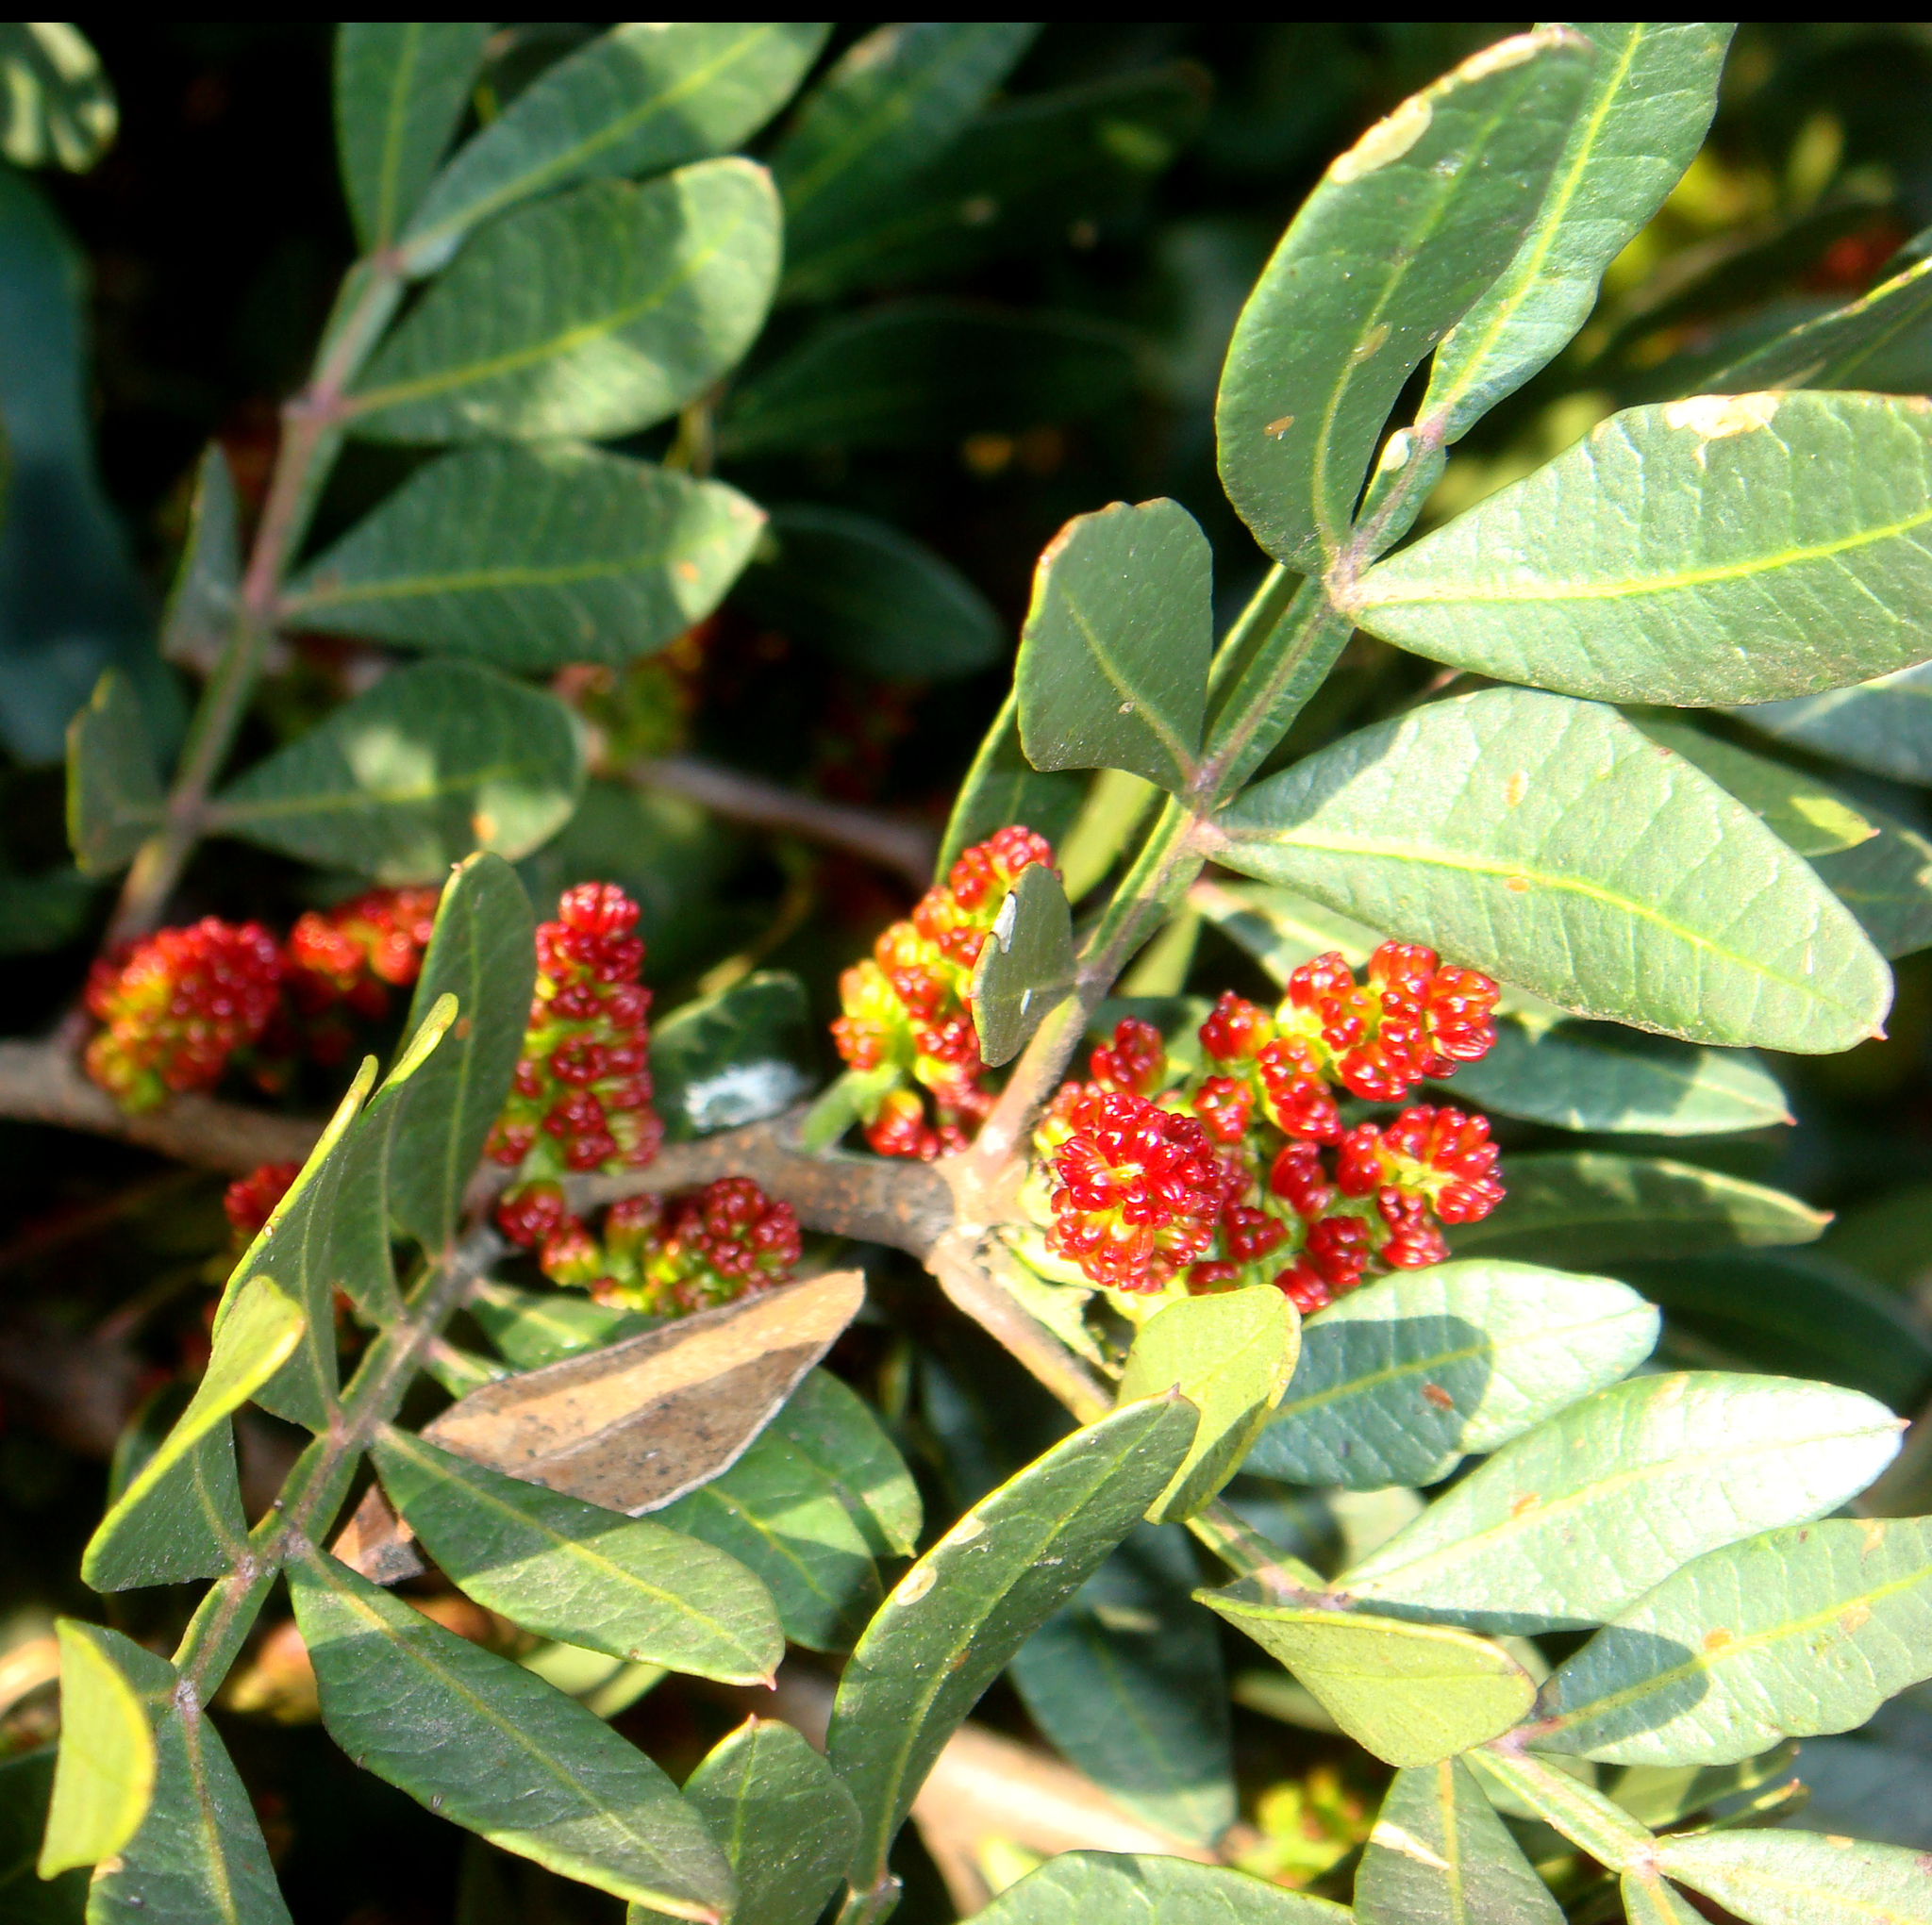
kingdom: Plantae
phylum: Tracheophyta
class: Magnoliopsida
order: Sapindales
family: Anacardiaceae
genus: Pistacia
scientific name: Pistacia lentiscus
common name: Lentisk
